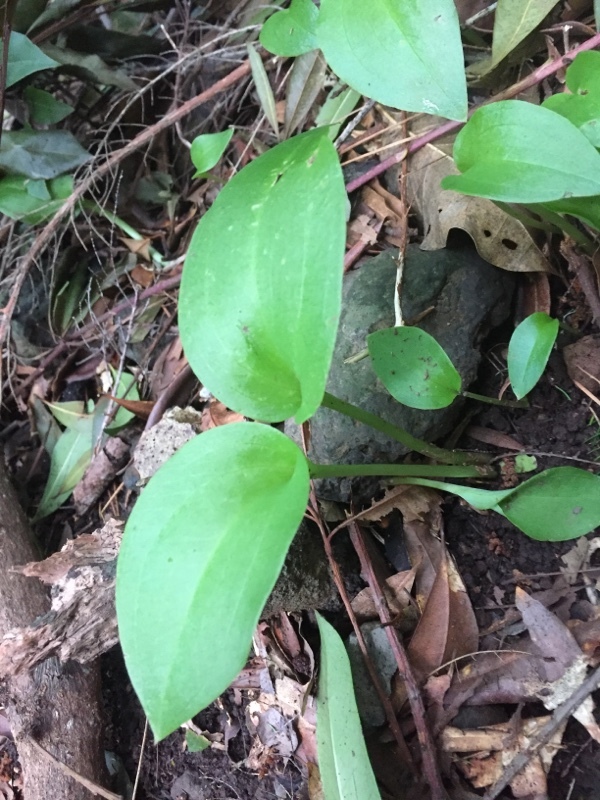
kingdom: Plantae
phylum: Tracheophyta
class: Liliopsida
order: Asparagales
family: Orchidaceae
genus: Gennaria
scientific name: Gennaria diphylla
